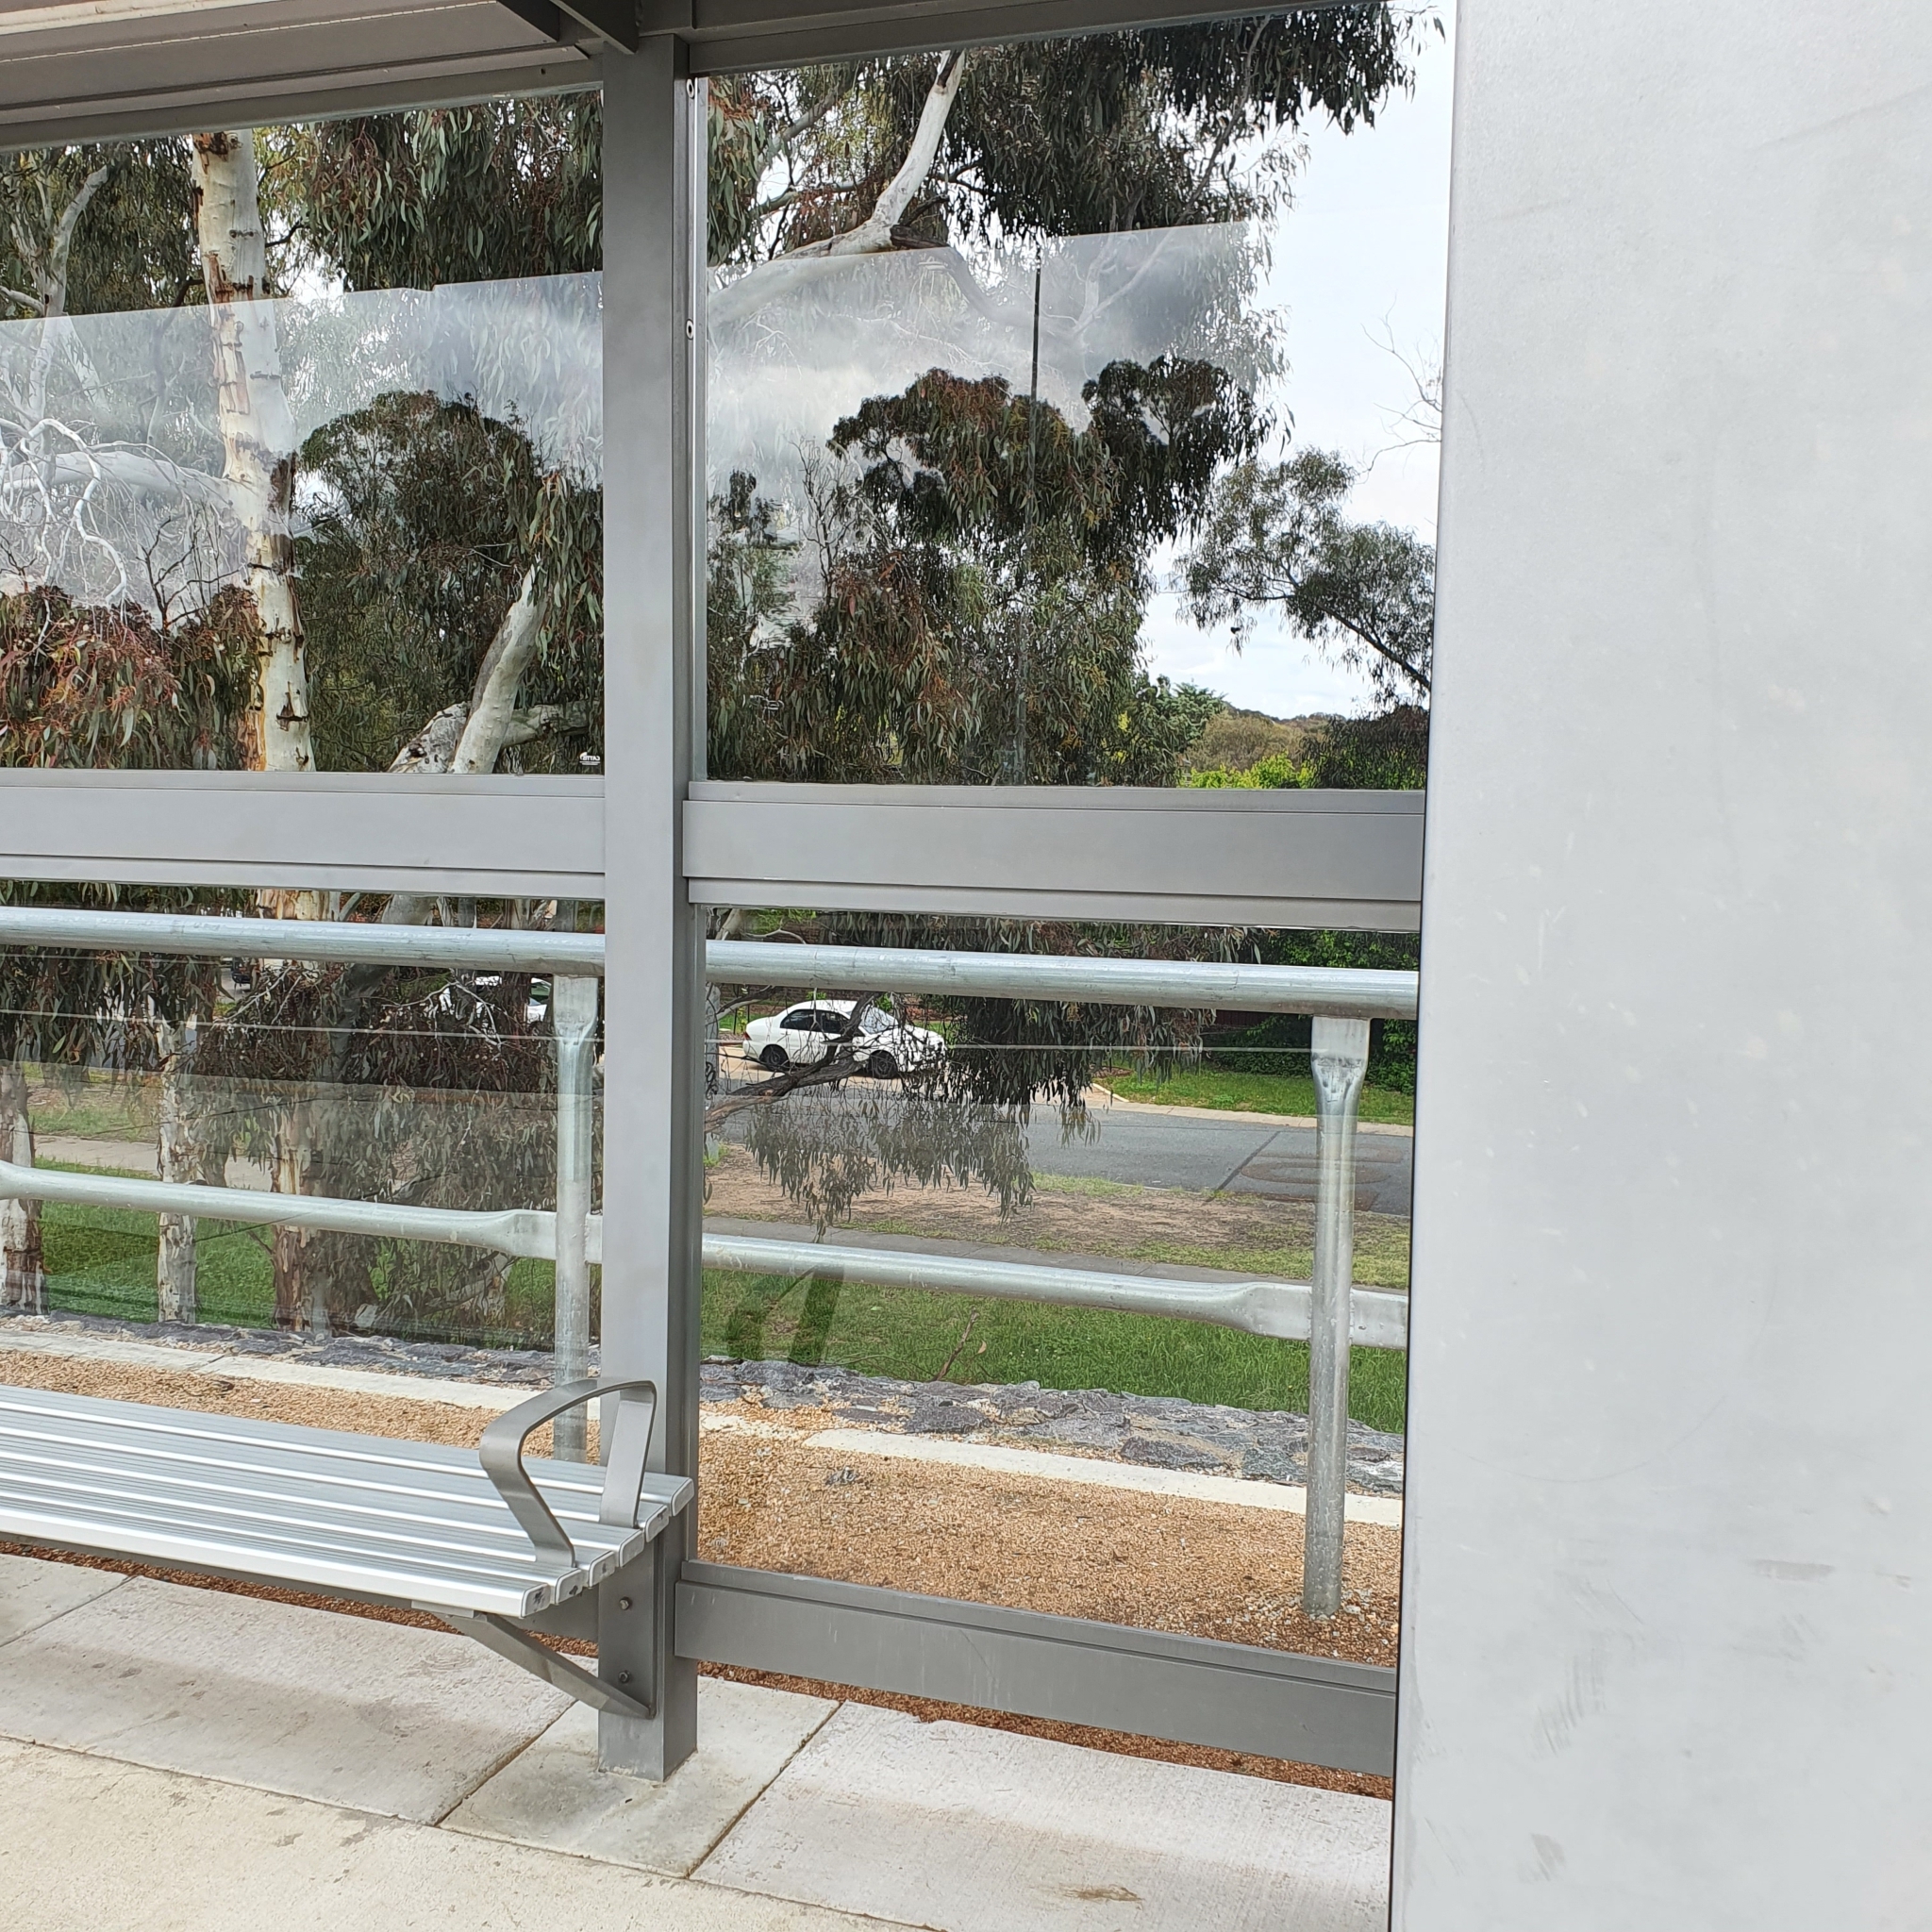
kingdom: Animalia
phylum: Chordata
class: Aves
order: Passeriformes
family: Pardalotidae
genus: Pardalotus
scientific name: Pardalotus punctatus
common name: Spotted pardalote
